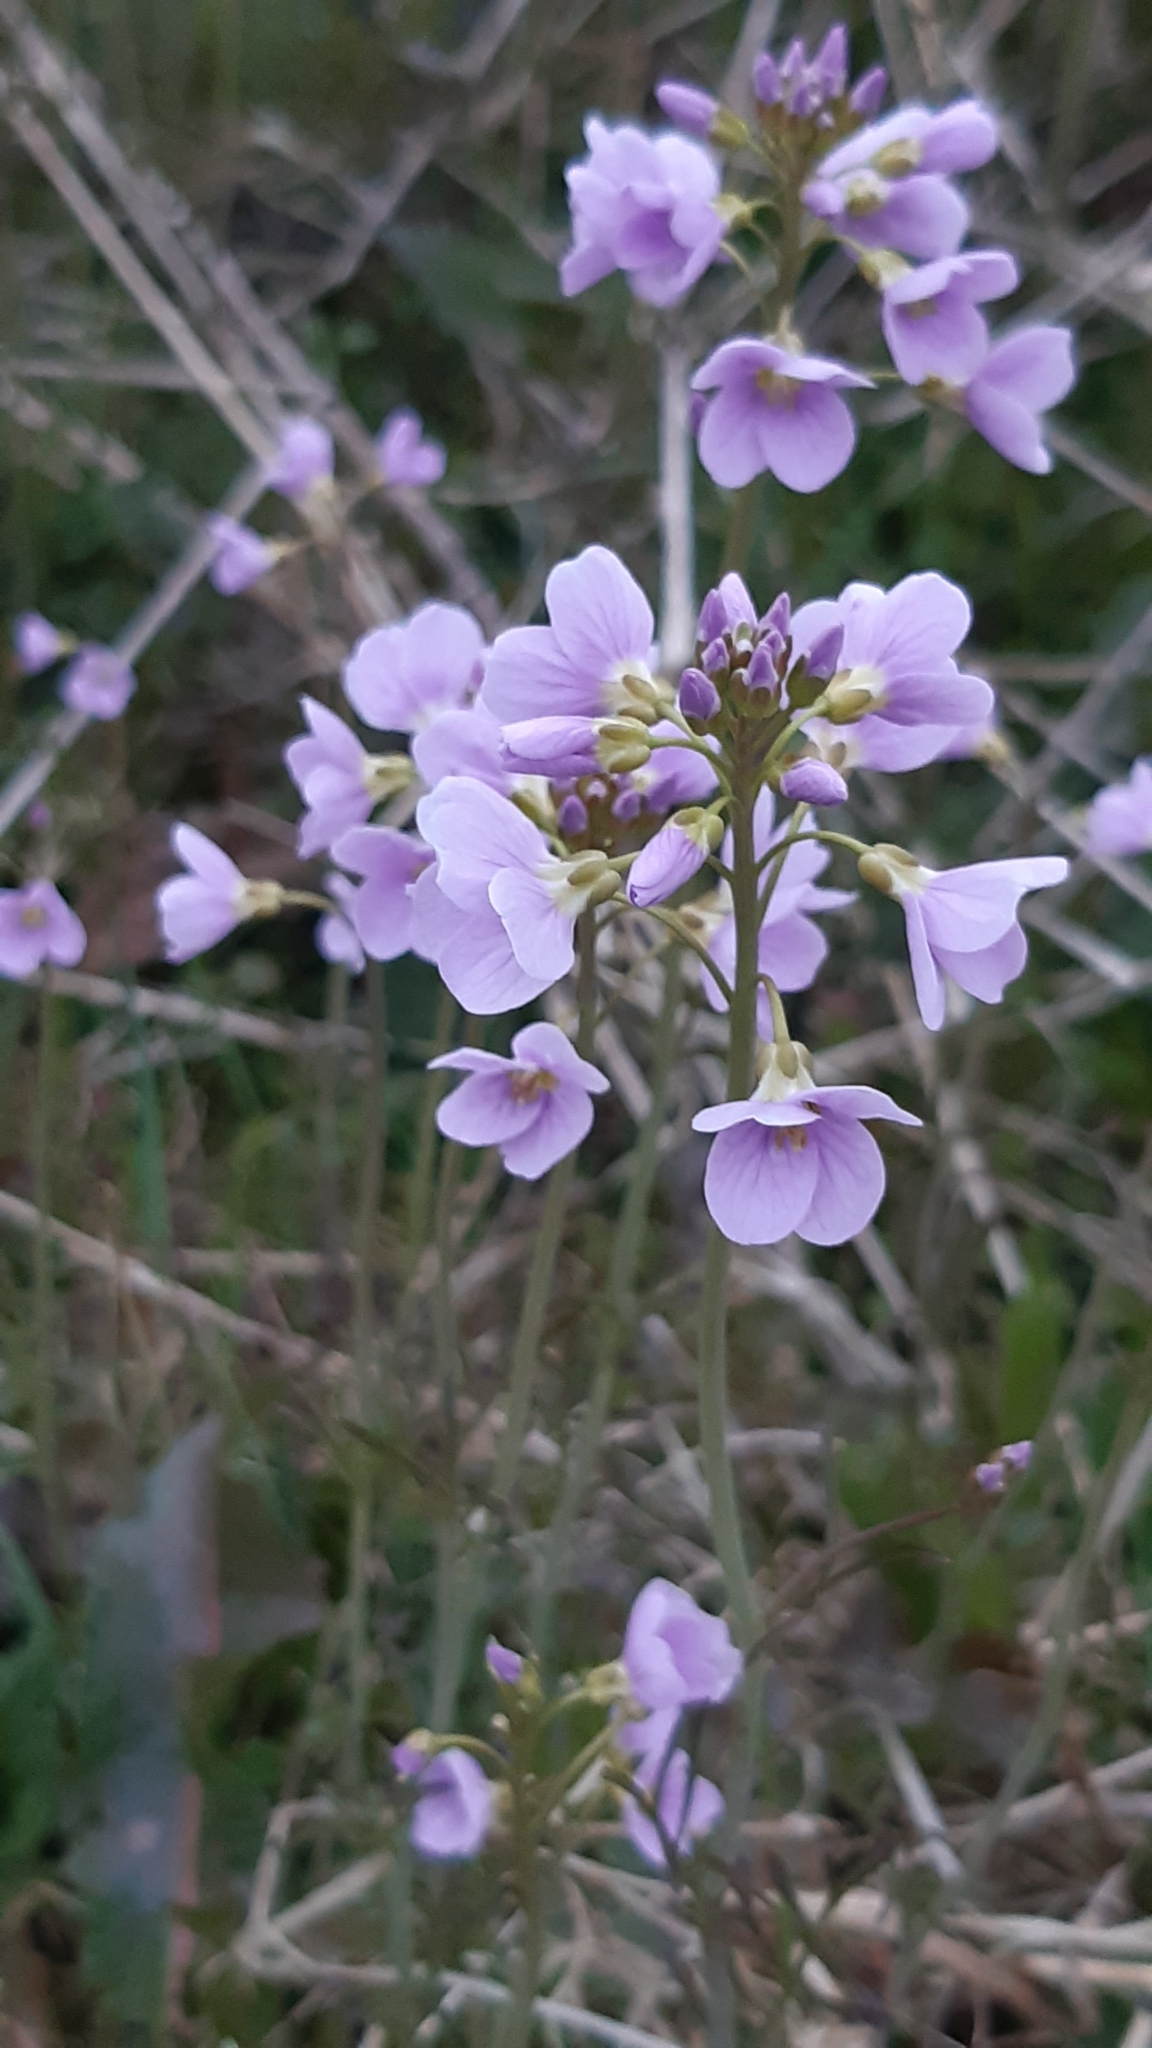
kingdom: Plantae
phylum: Tracheophyta
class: Magnoliopsida
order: Brassicales
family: Brassicaceae
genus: Cardamine
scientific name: Cardamine pratensis
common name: Cuckoo flower
